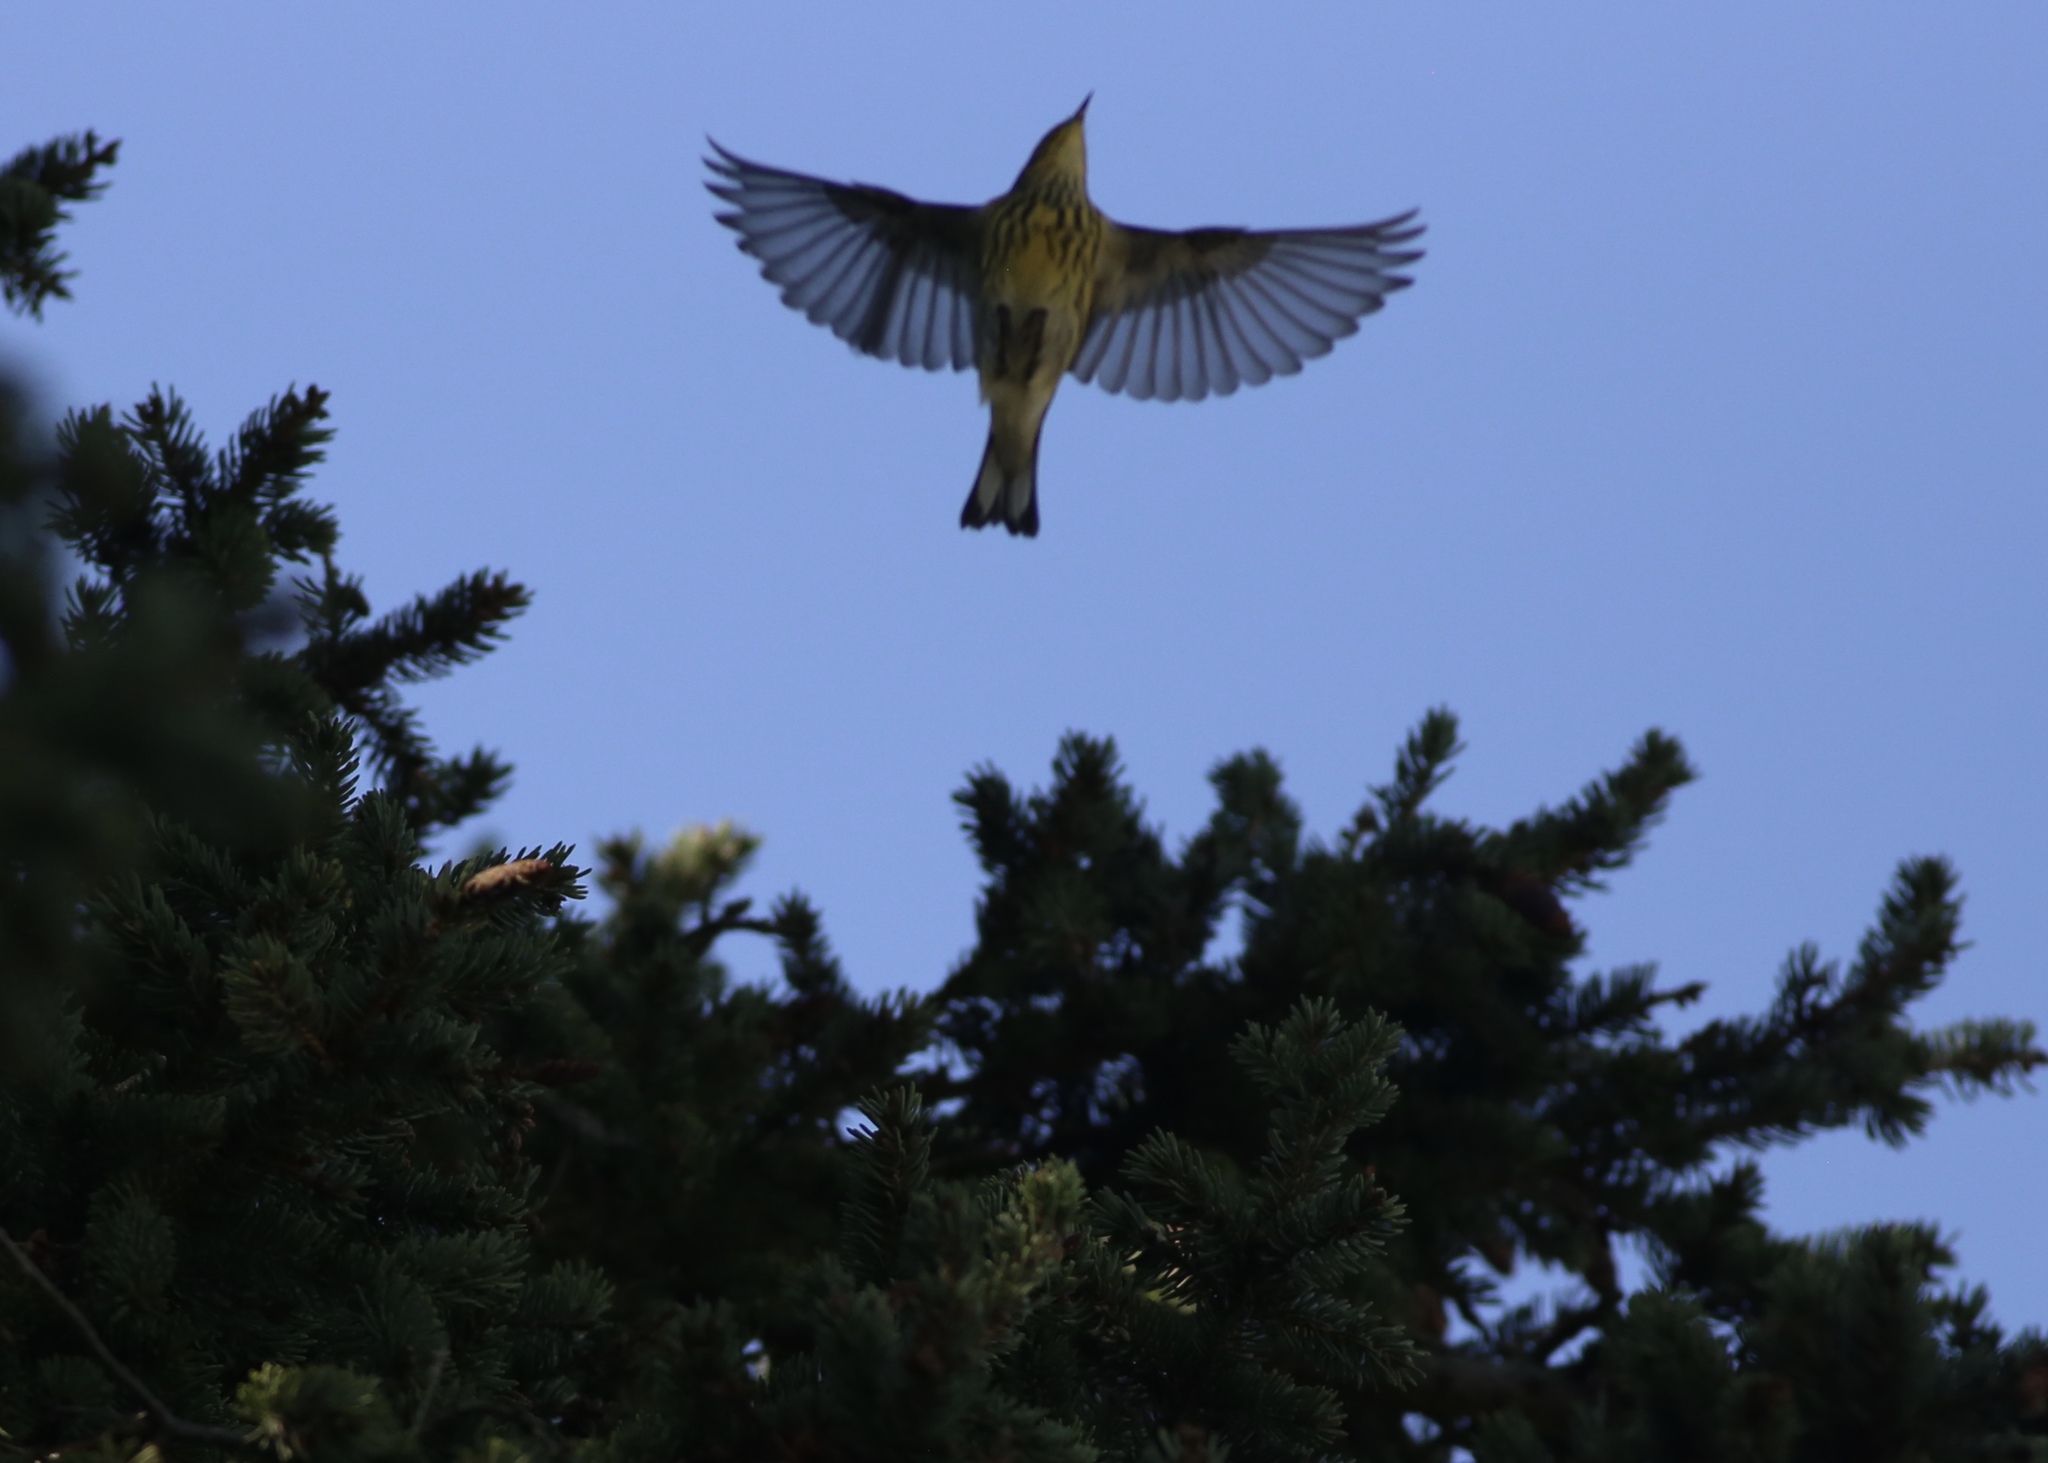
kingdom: Animalia
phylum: Chordata
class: Aves
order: Passeriformes
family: Parulidae
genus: Setophaga
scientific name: Setophaga tigrina
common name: Cape may warbler
